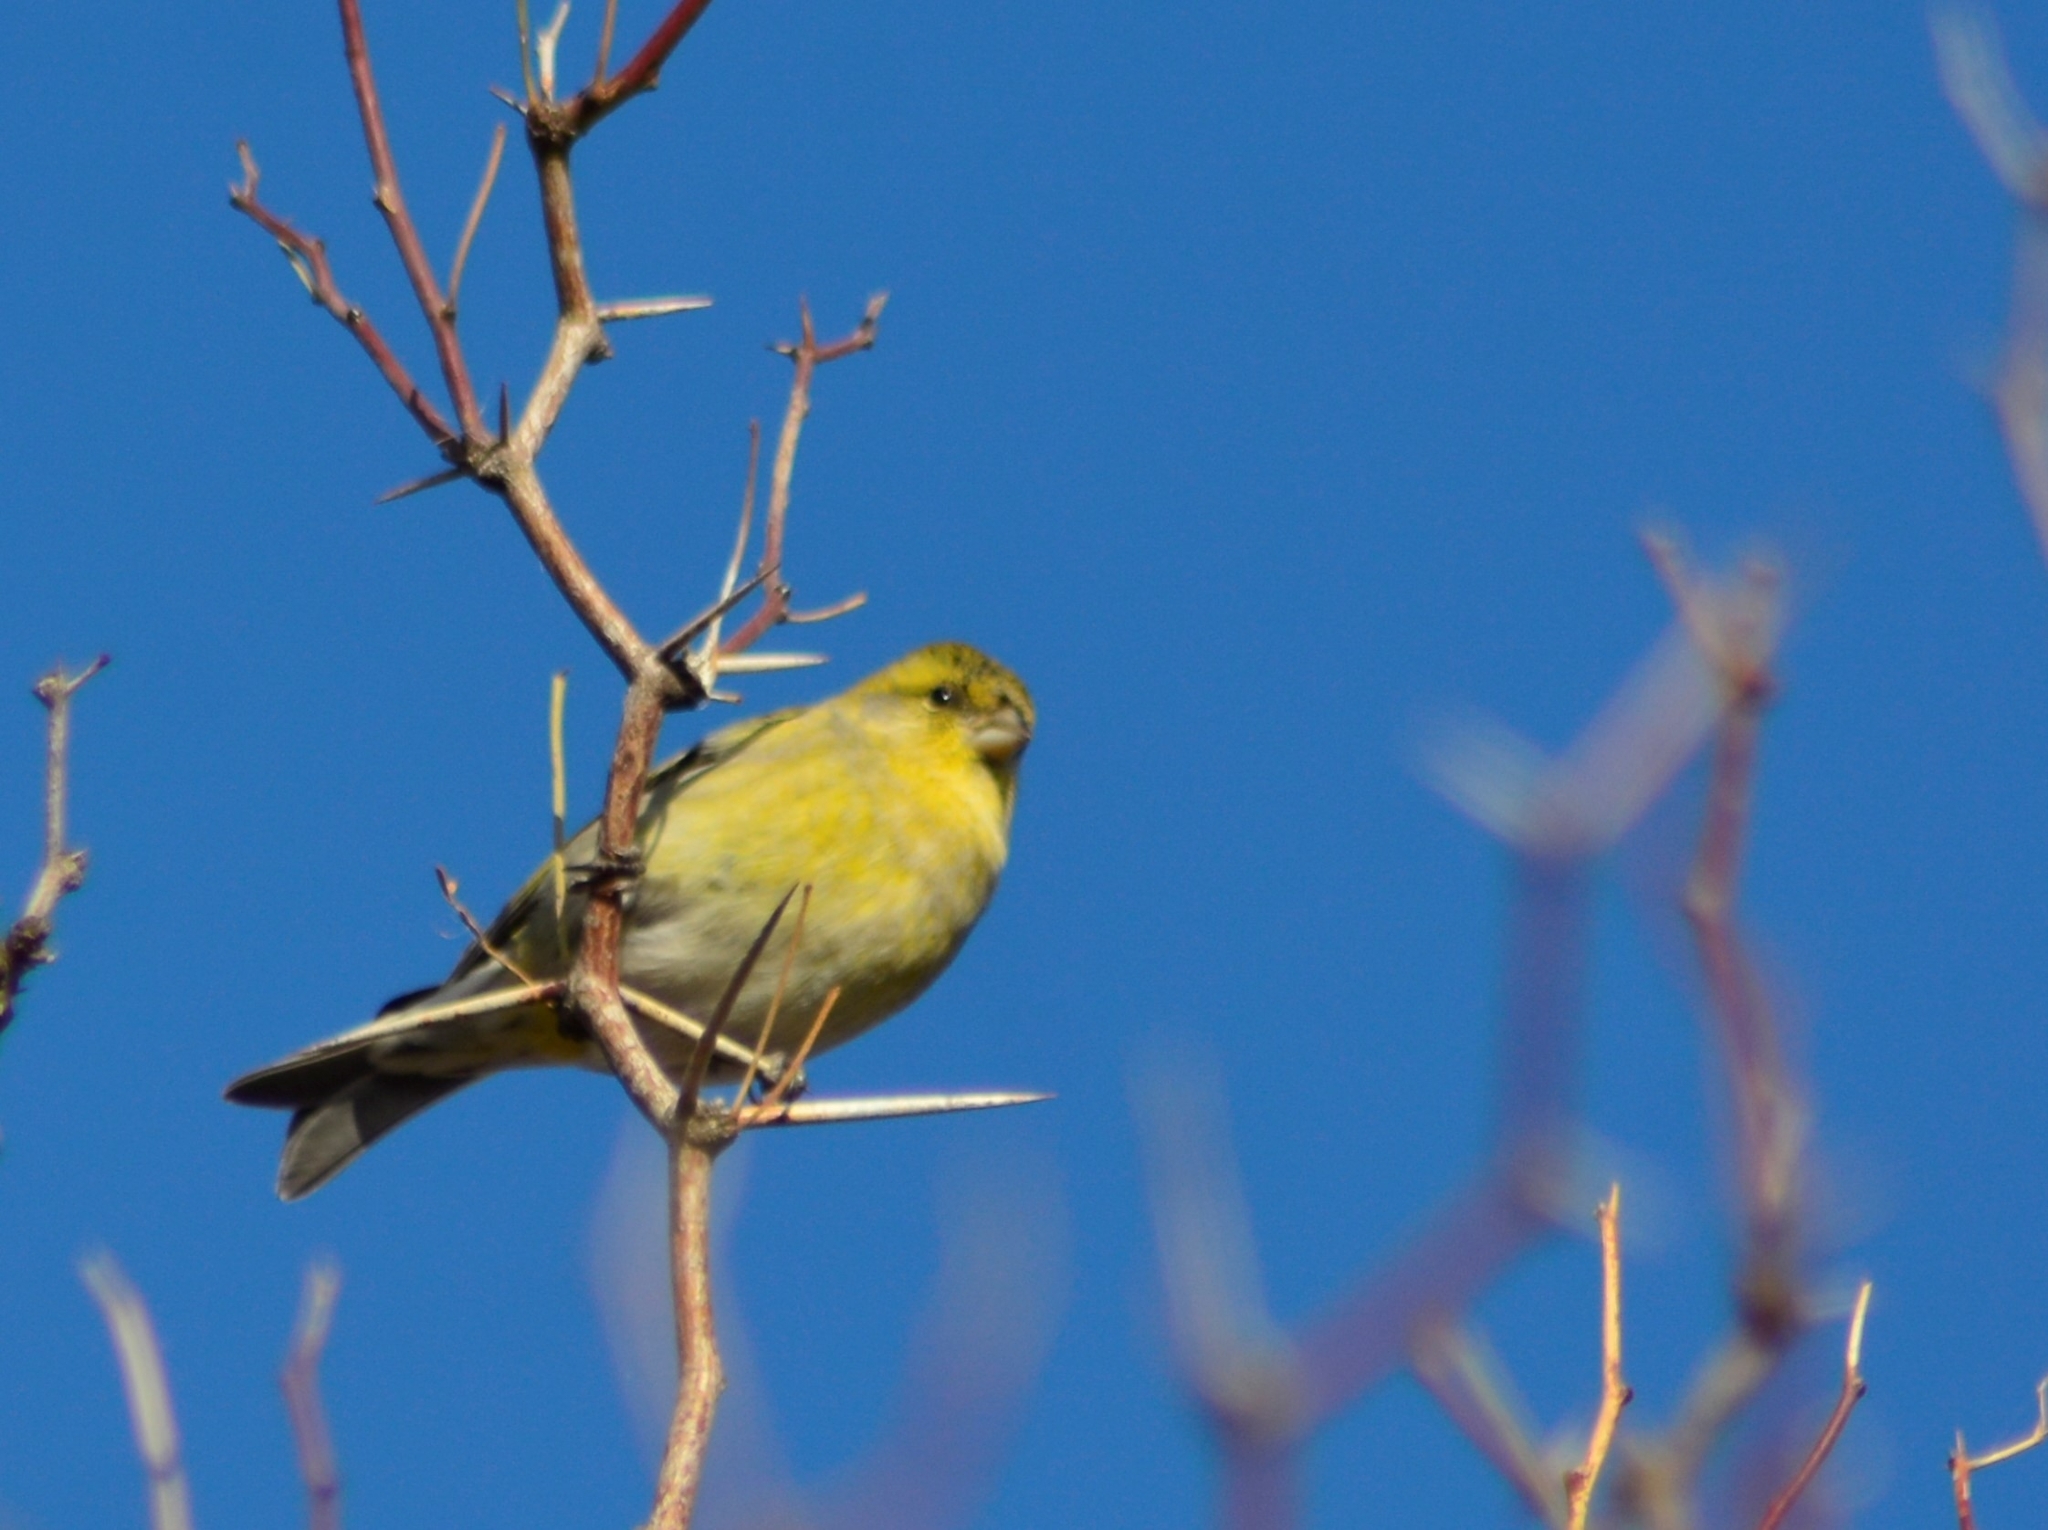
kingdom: Animalia
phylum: Chordata
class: Aves
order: Passeriformes
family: Fringillidae
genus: Spinus
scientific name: Spinus barbatus
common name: Black-chinned siskin
